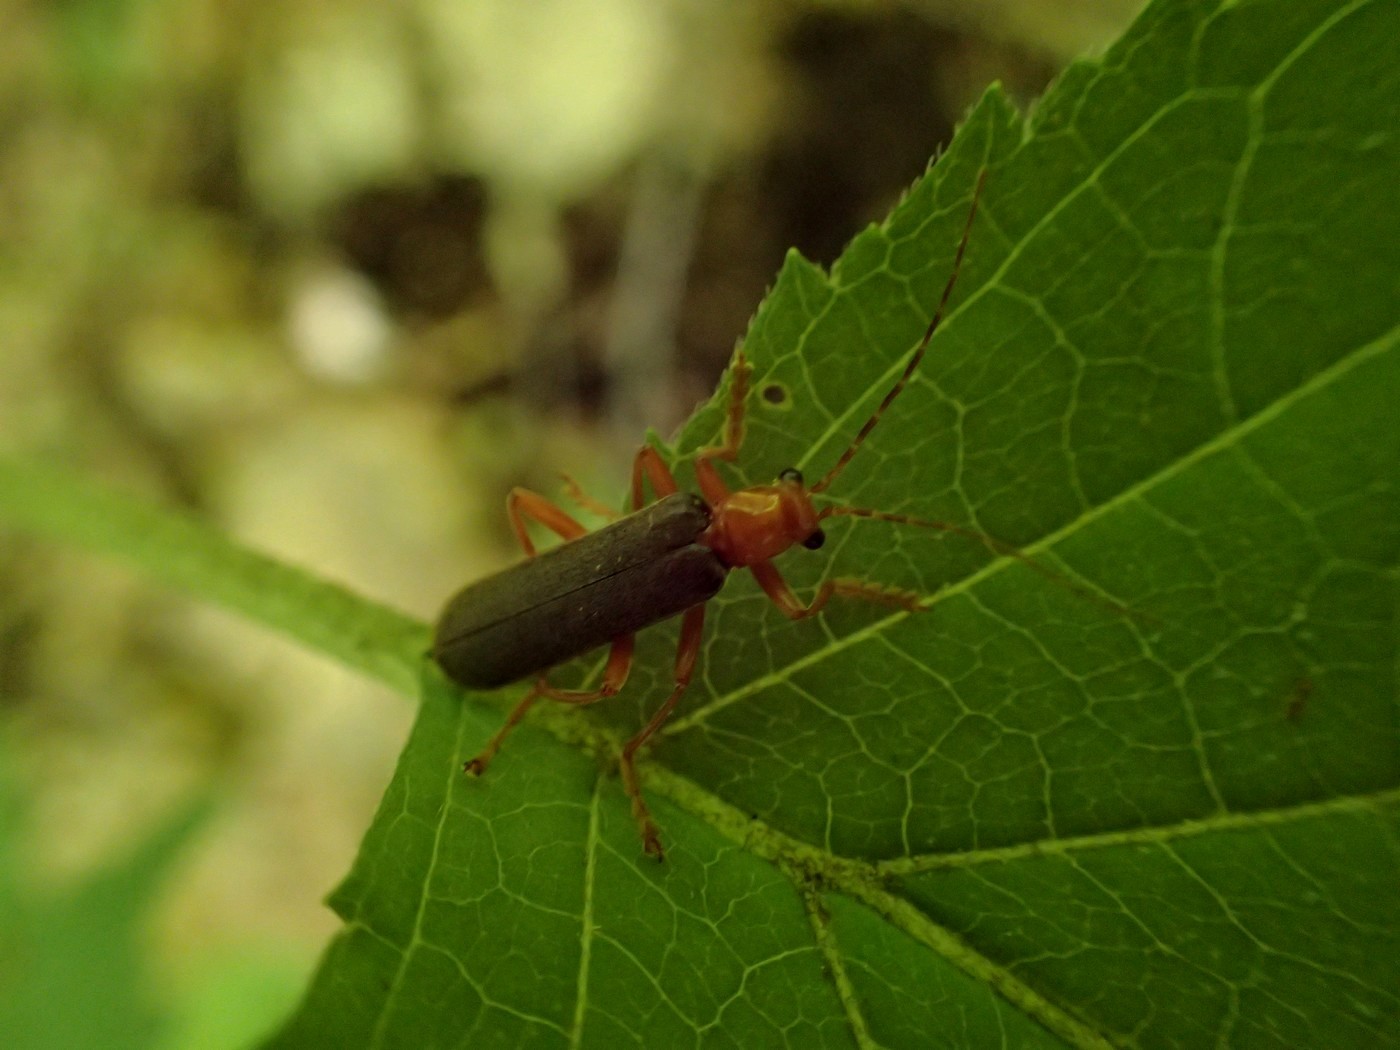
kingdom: Animalia
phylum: Arthropoda
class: Insecta
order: Coleoptera
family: Cantharidae
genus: Pacificanthia
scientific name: Pacificanthia rotundicollis
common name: Brown leatherwing beetle
